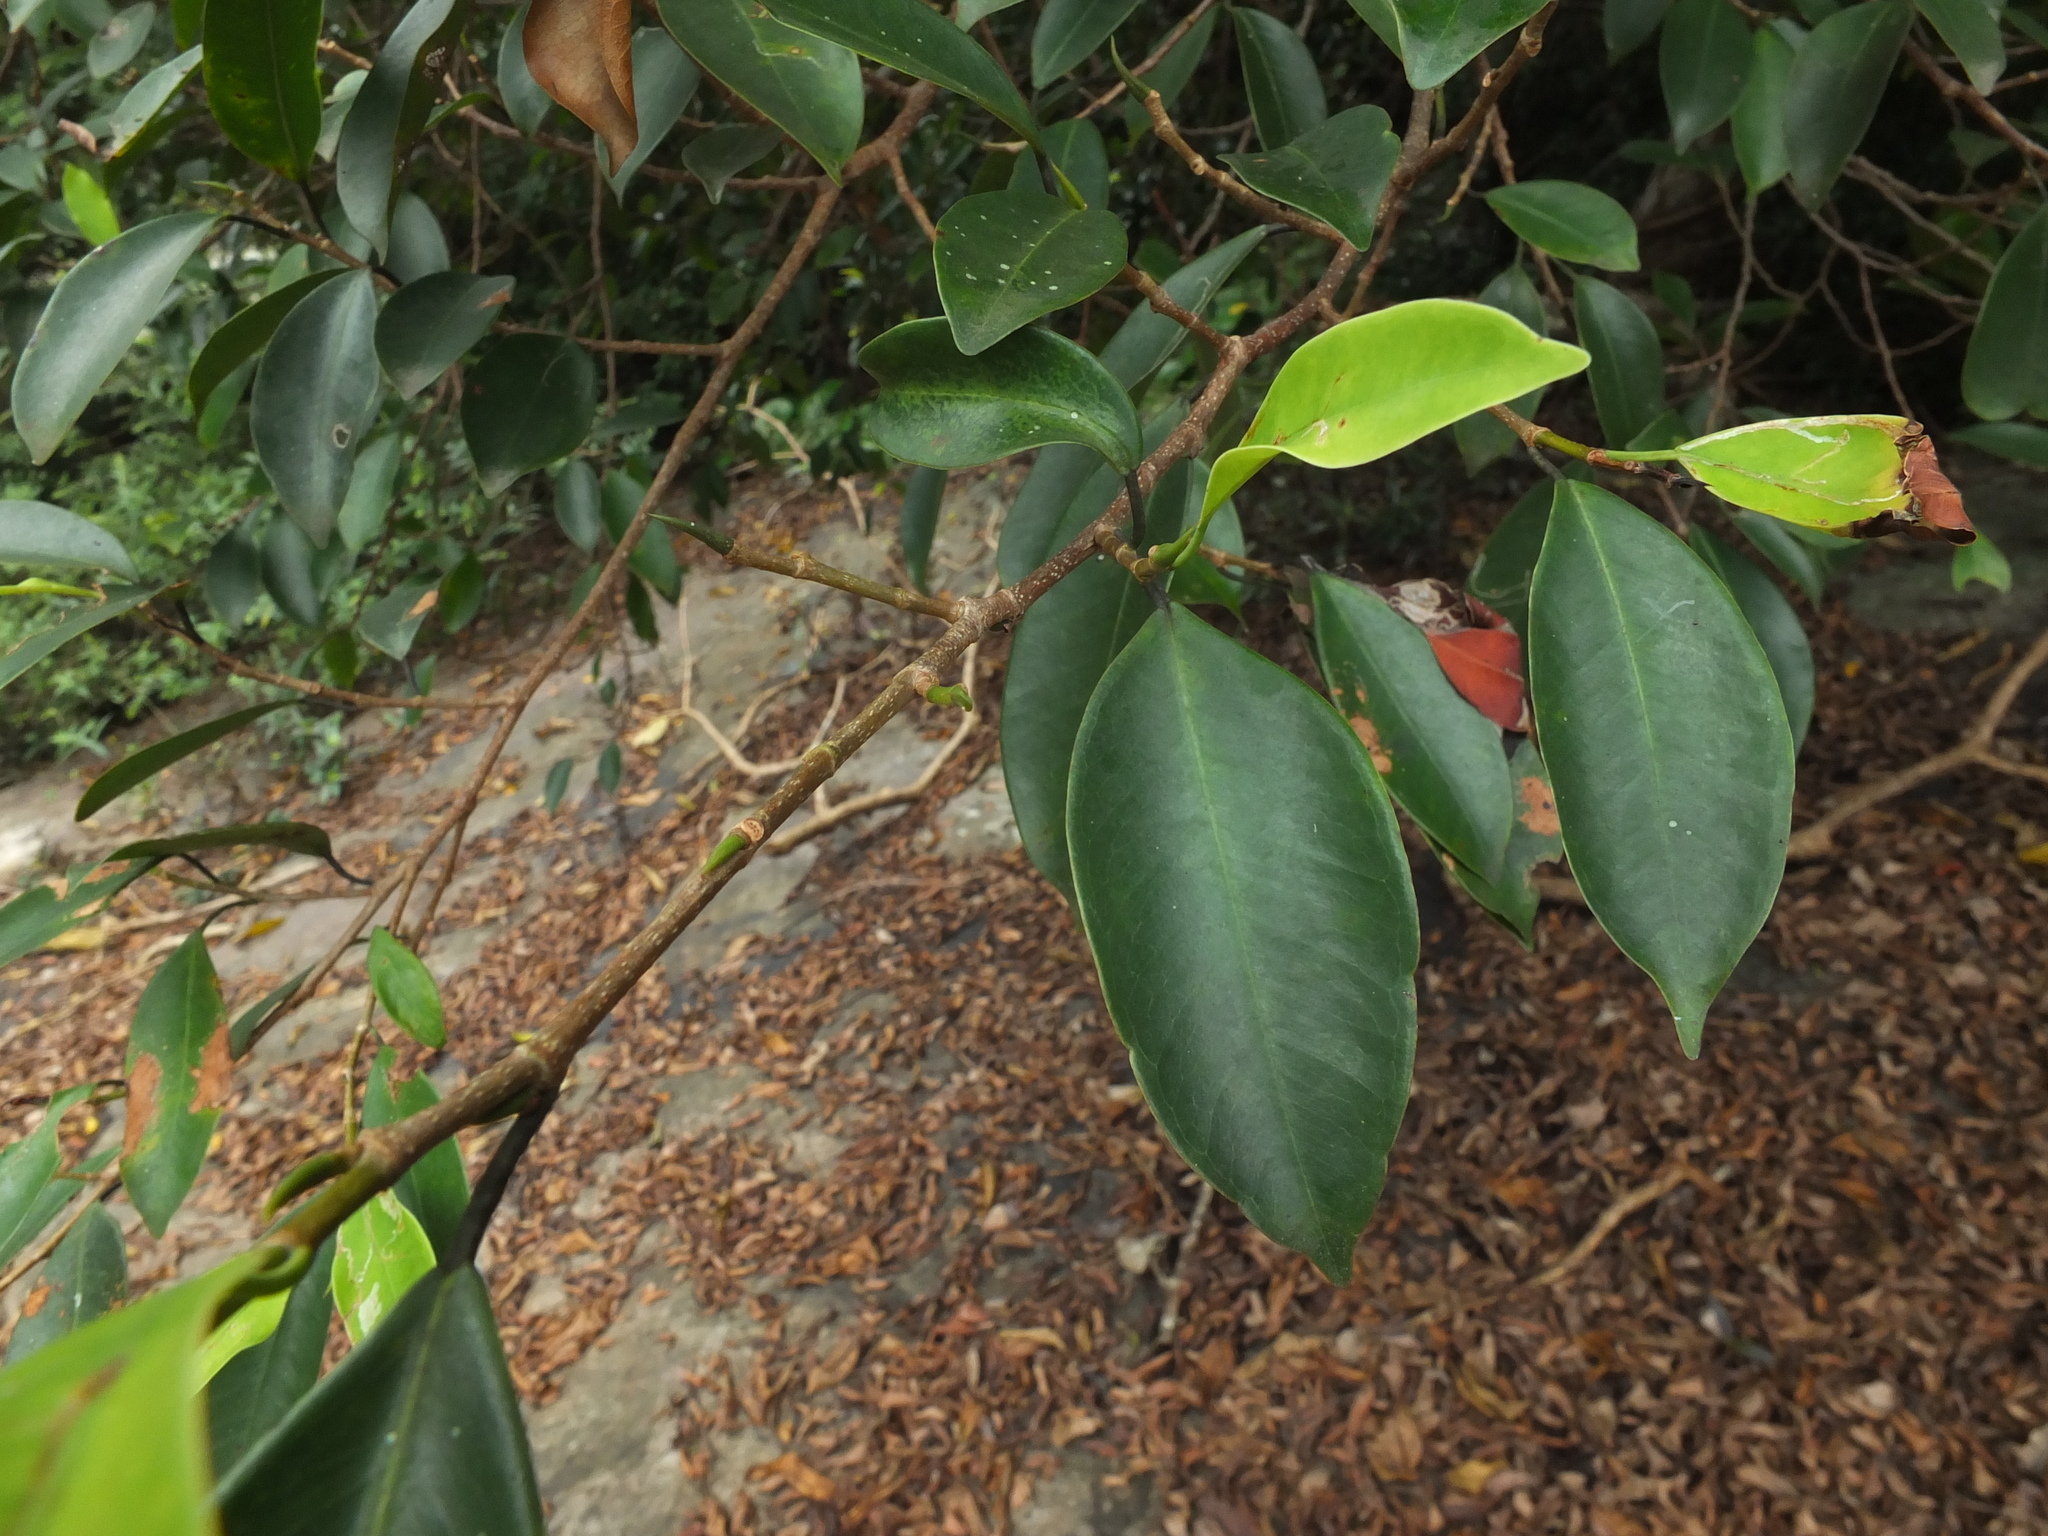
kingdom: Plantae
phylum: Tracheophyta
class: Magnoliopsida
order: Rosales
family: Moraceae
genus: Ficus
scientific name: Ficus microcarpa
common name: Chinese banyan
